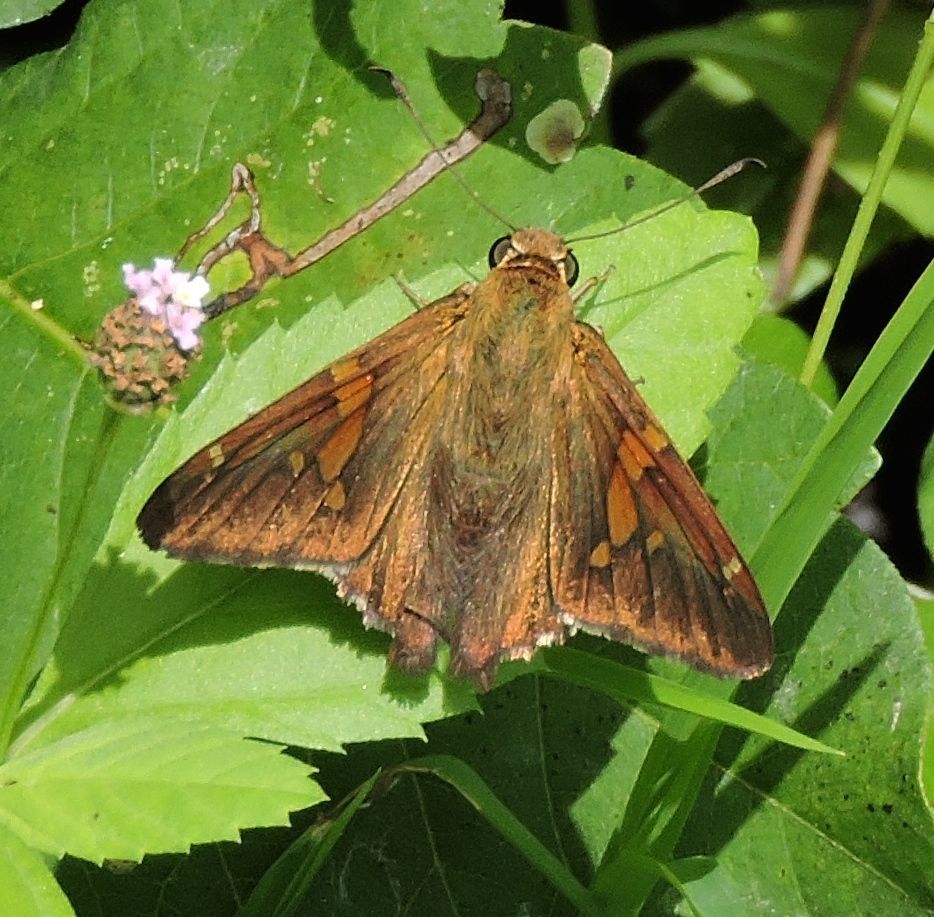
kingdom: Animalia
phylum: Arthropoda
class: Insecta
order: Lepidoptera
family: Hesperiidae
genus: Epargyreus
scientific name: Epargyreus clarus
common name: Silver-spotted skipper
